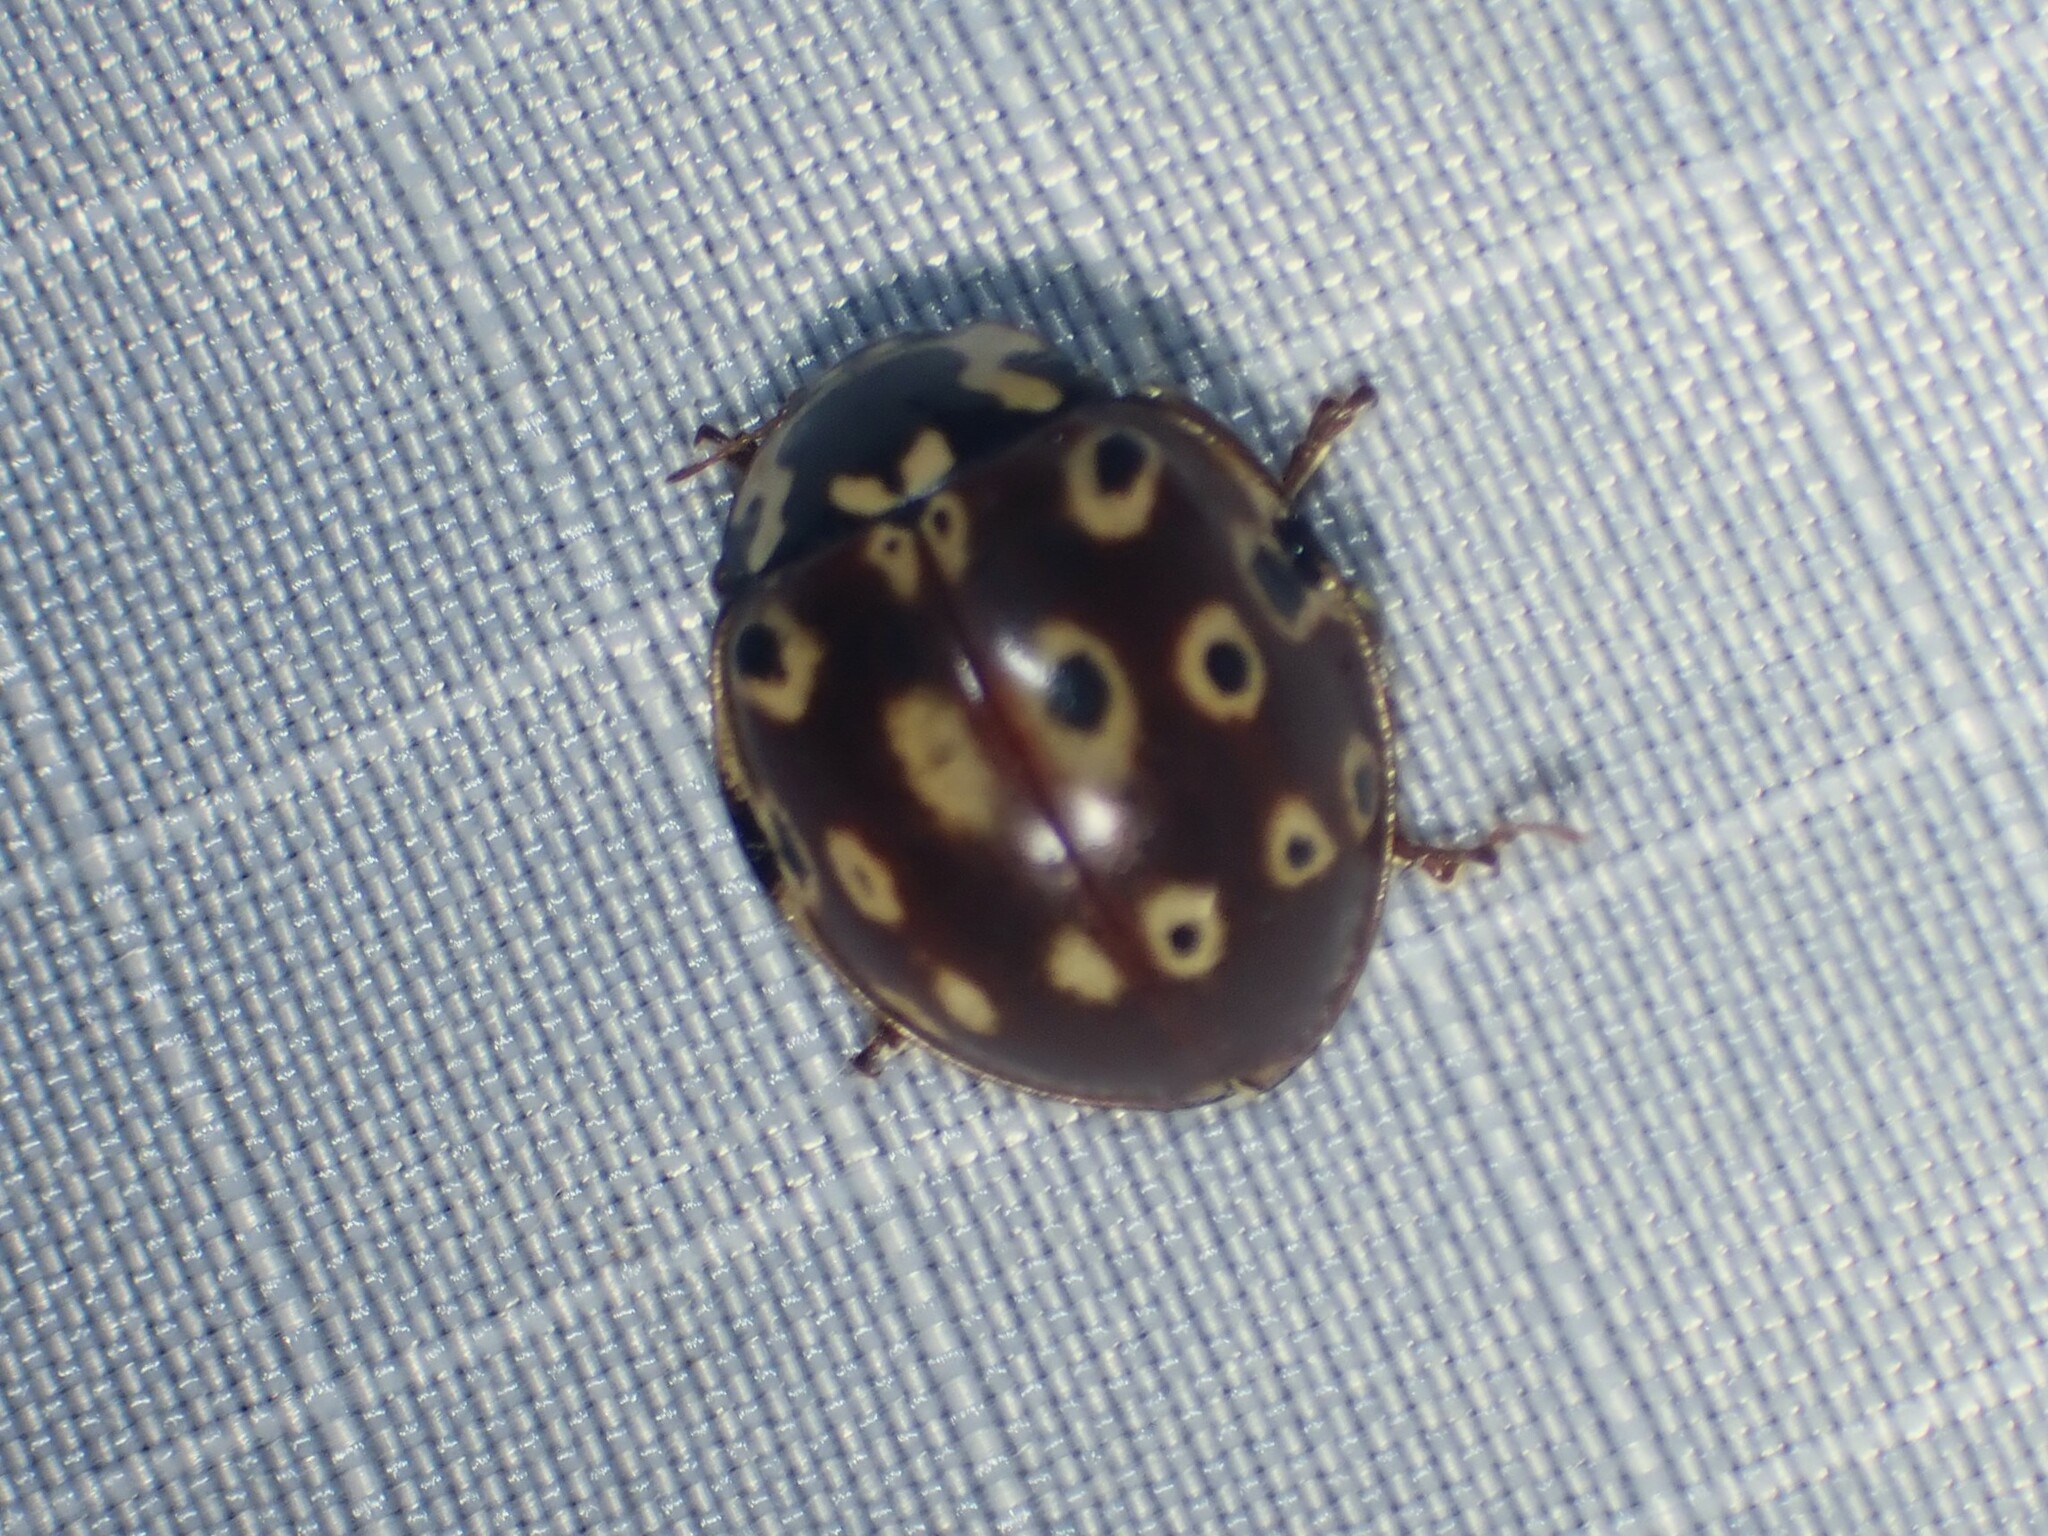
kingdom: Animalia
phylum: Arthropoda
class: Insecta
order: Coleoptera
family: Coccinellidae
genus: Anatis
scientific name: Anatis mali
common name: Eye-spotted lady beetle
